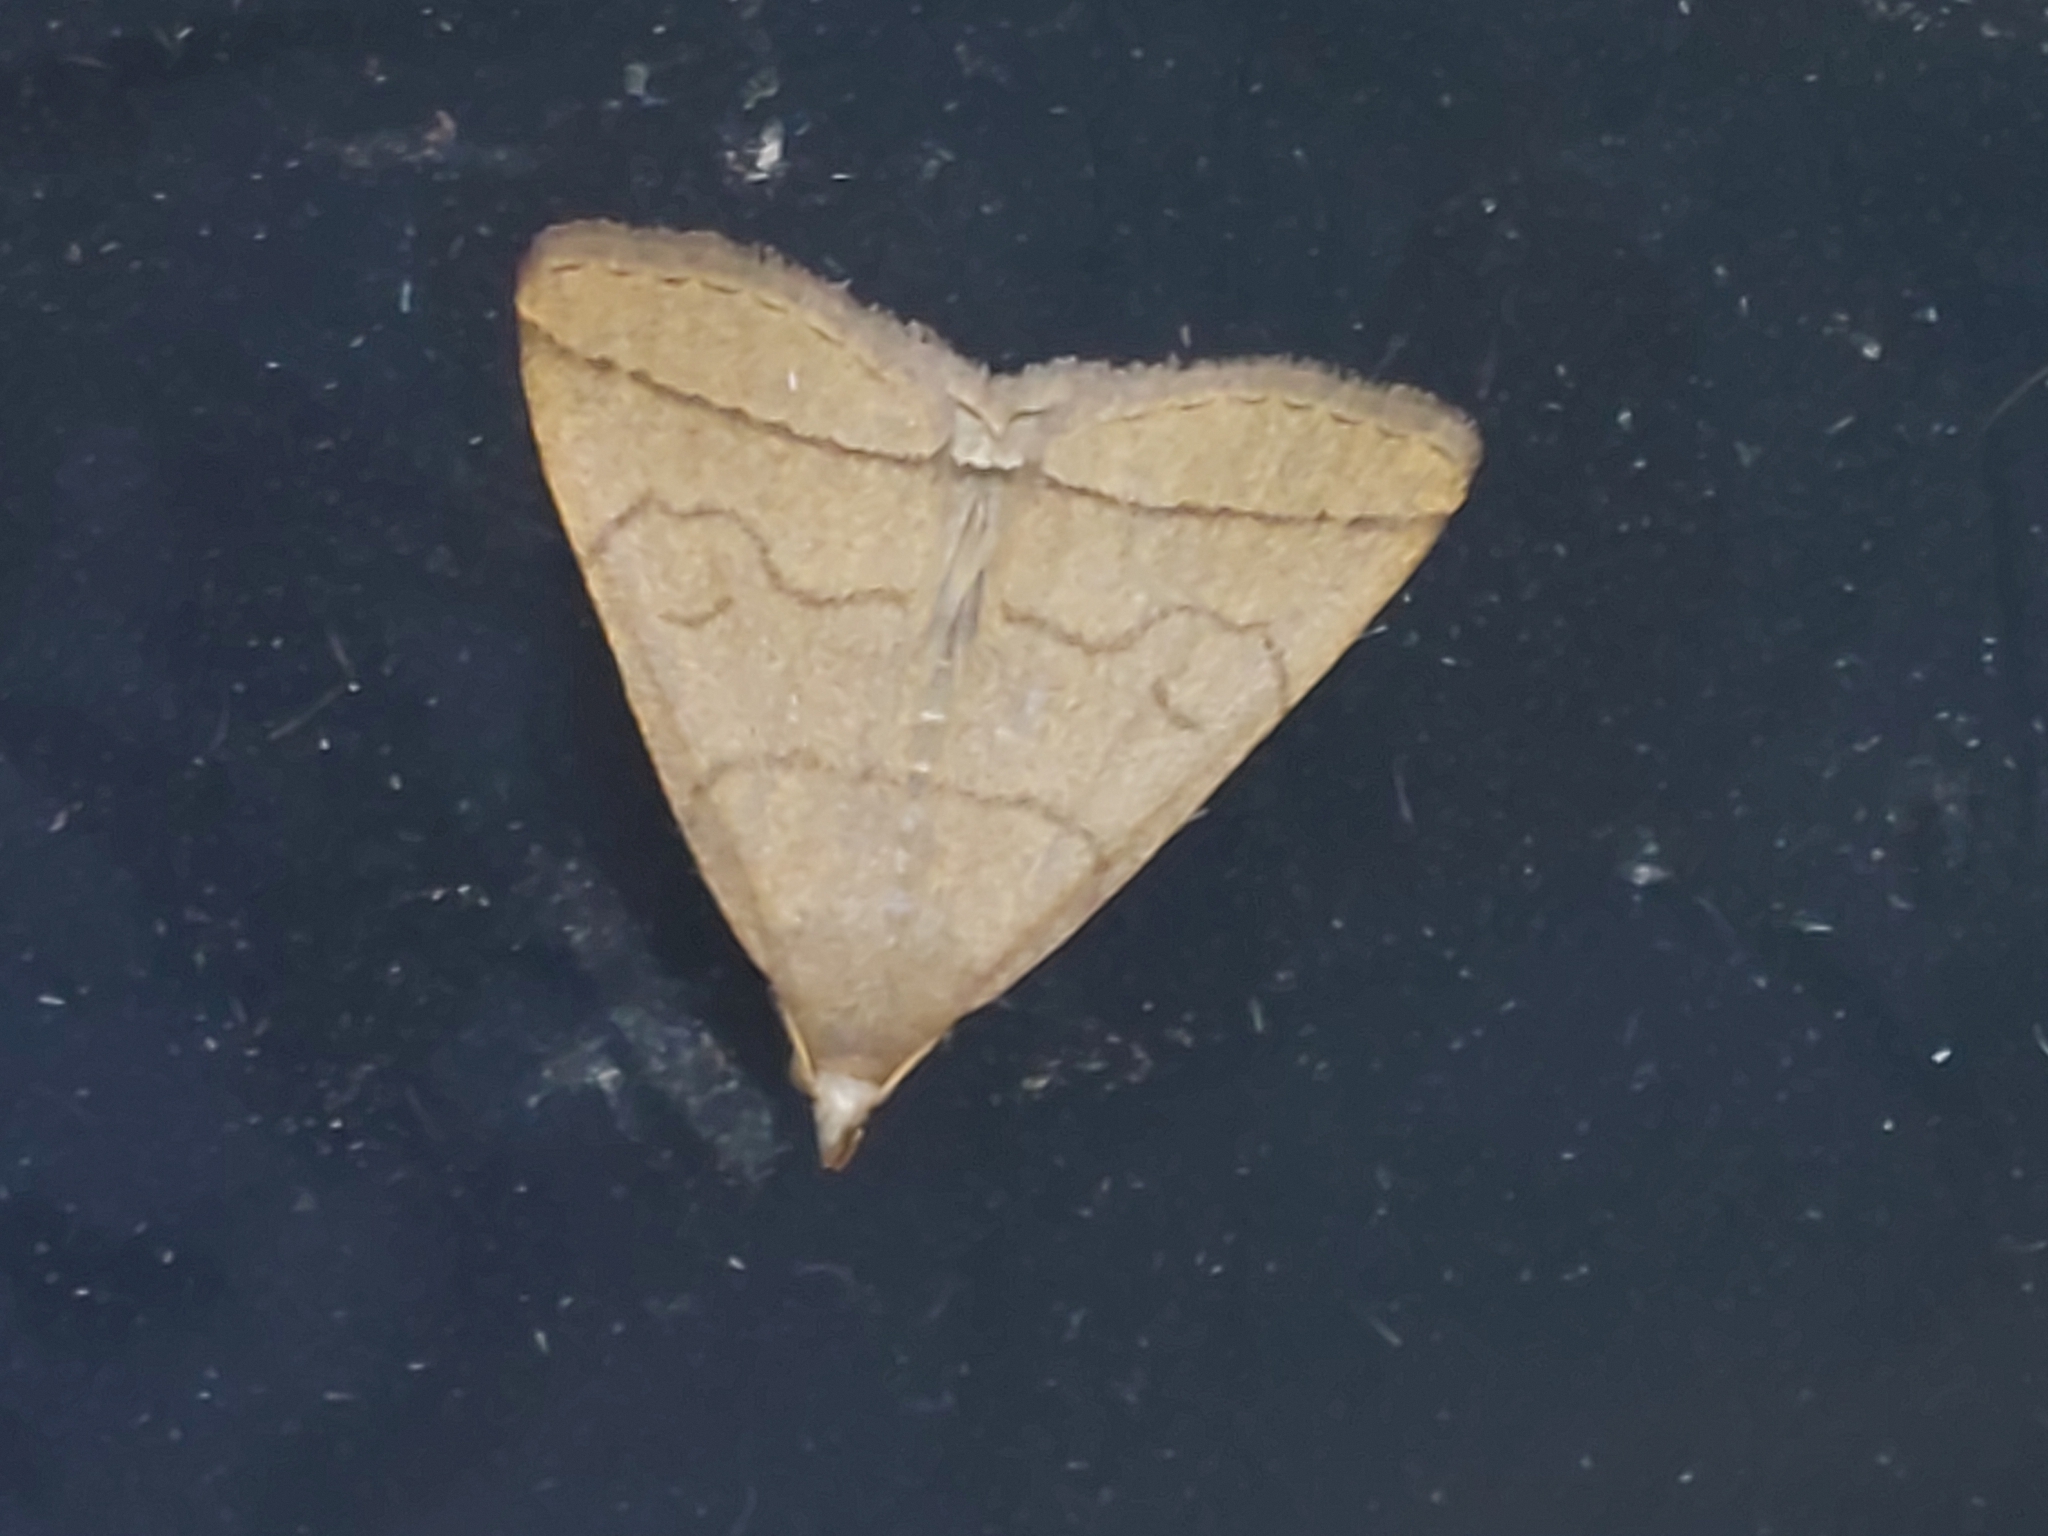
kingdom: Animalia
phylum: Arthropoda
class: Insecta
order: Lepidoptera
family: Erebidae
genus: Herminia
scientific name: Herminia tarsipennalis
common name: Fan-foot
